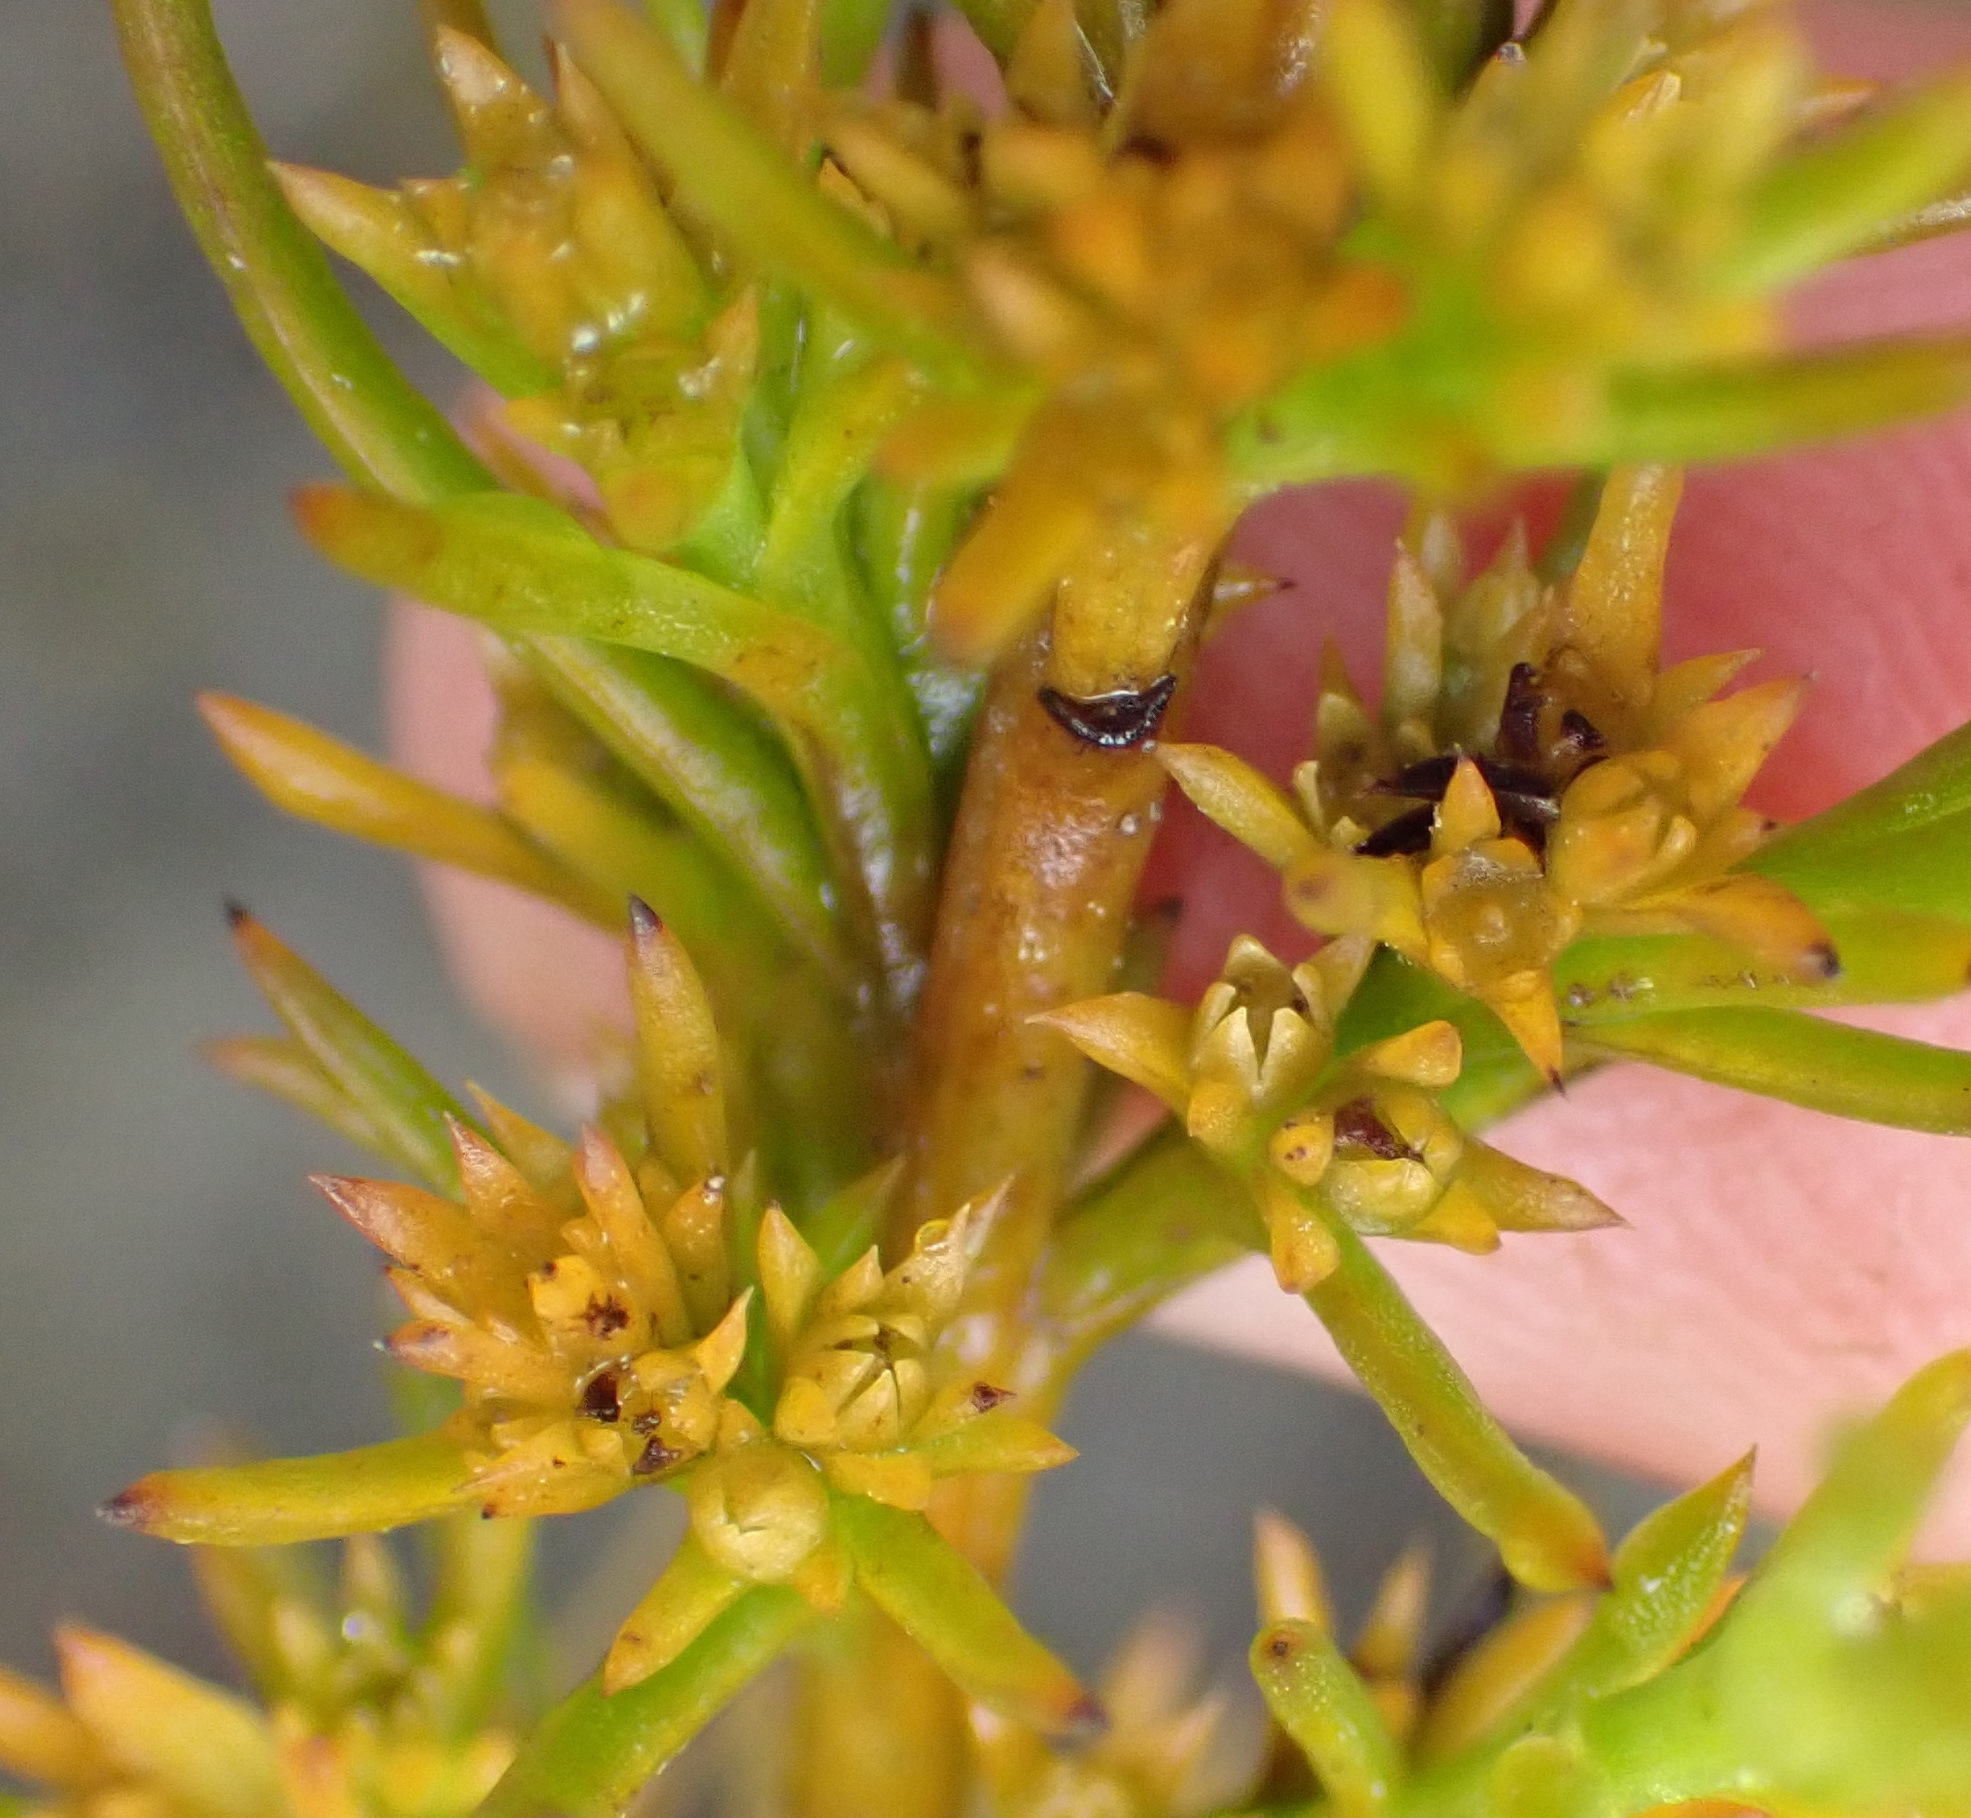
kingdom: Plantae
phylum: Tracheophyta
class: Magnoliopsida
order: Santalales
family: Thesiaceae
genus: Thesium
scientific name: Thesium glomeruliflorum
